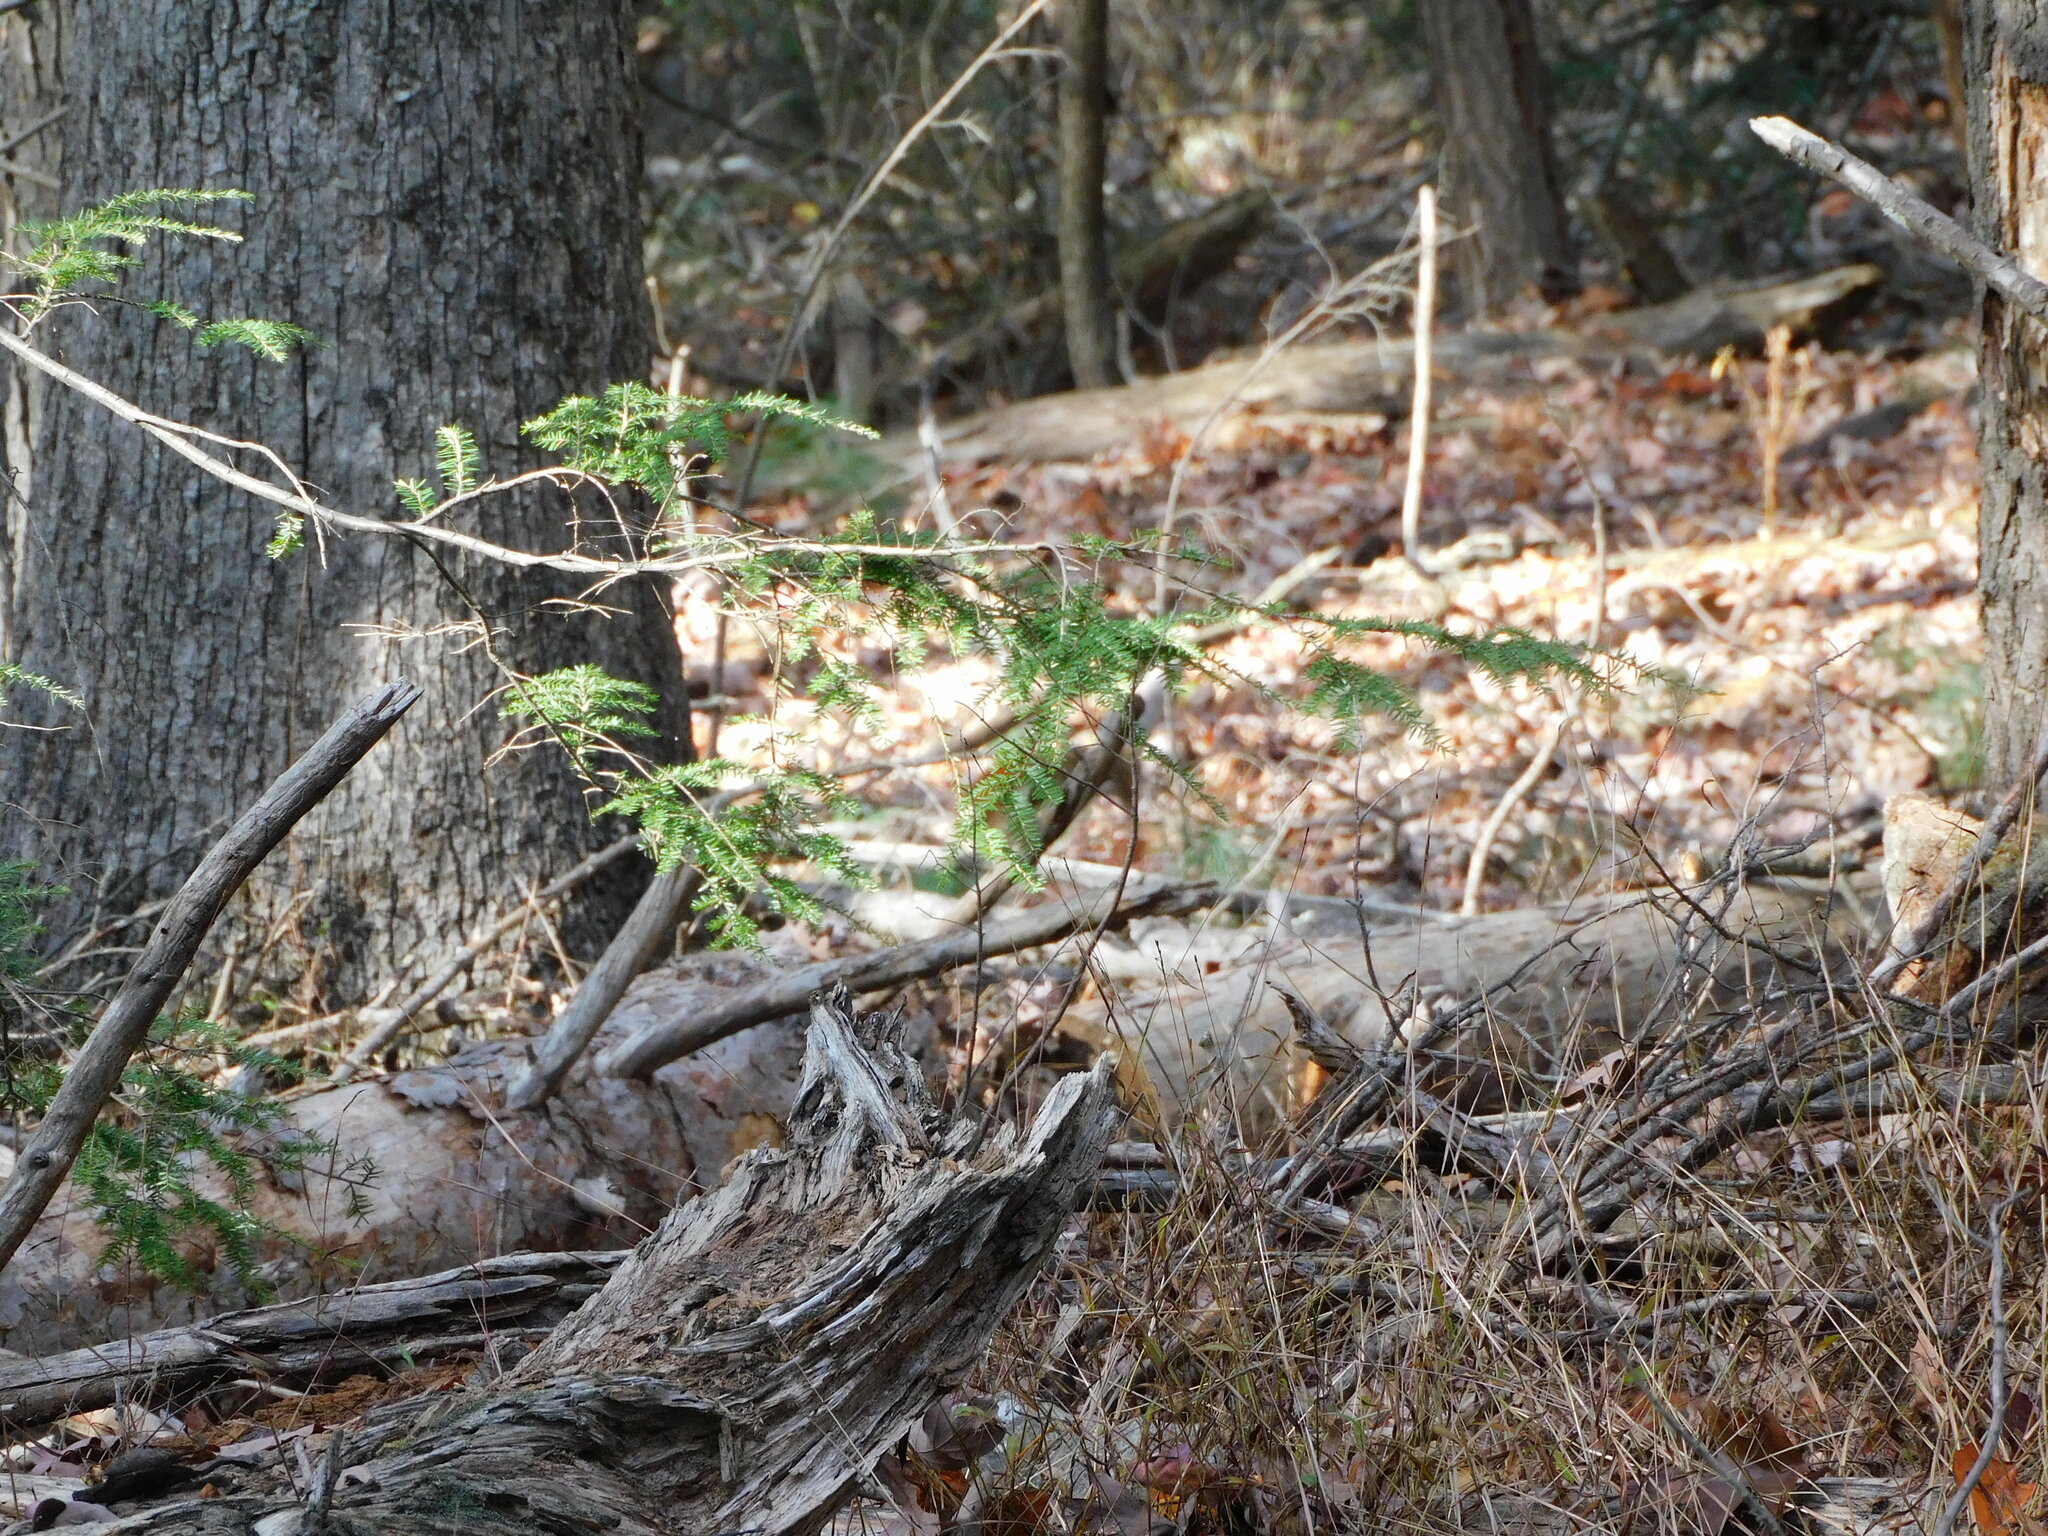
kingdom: Plantae
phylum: Tracheophyta
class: Pinopsida
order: Pinales
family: Pinaceae
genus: Tsuga
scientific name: Tsuga canadensis
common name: Eastern hemlock
